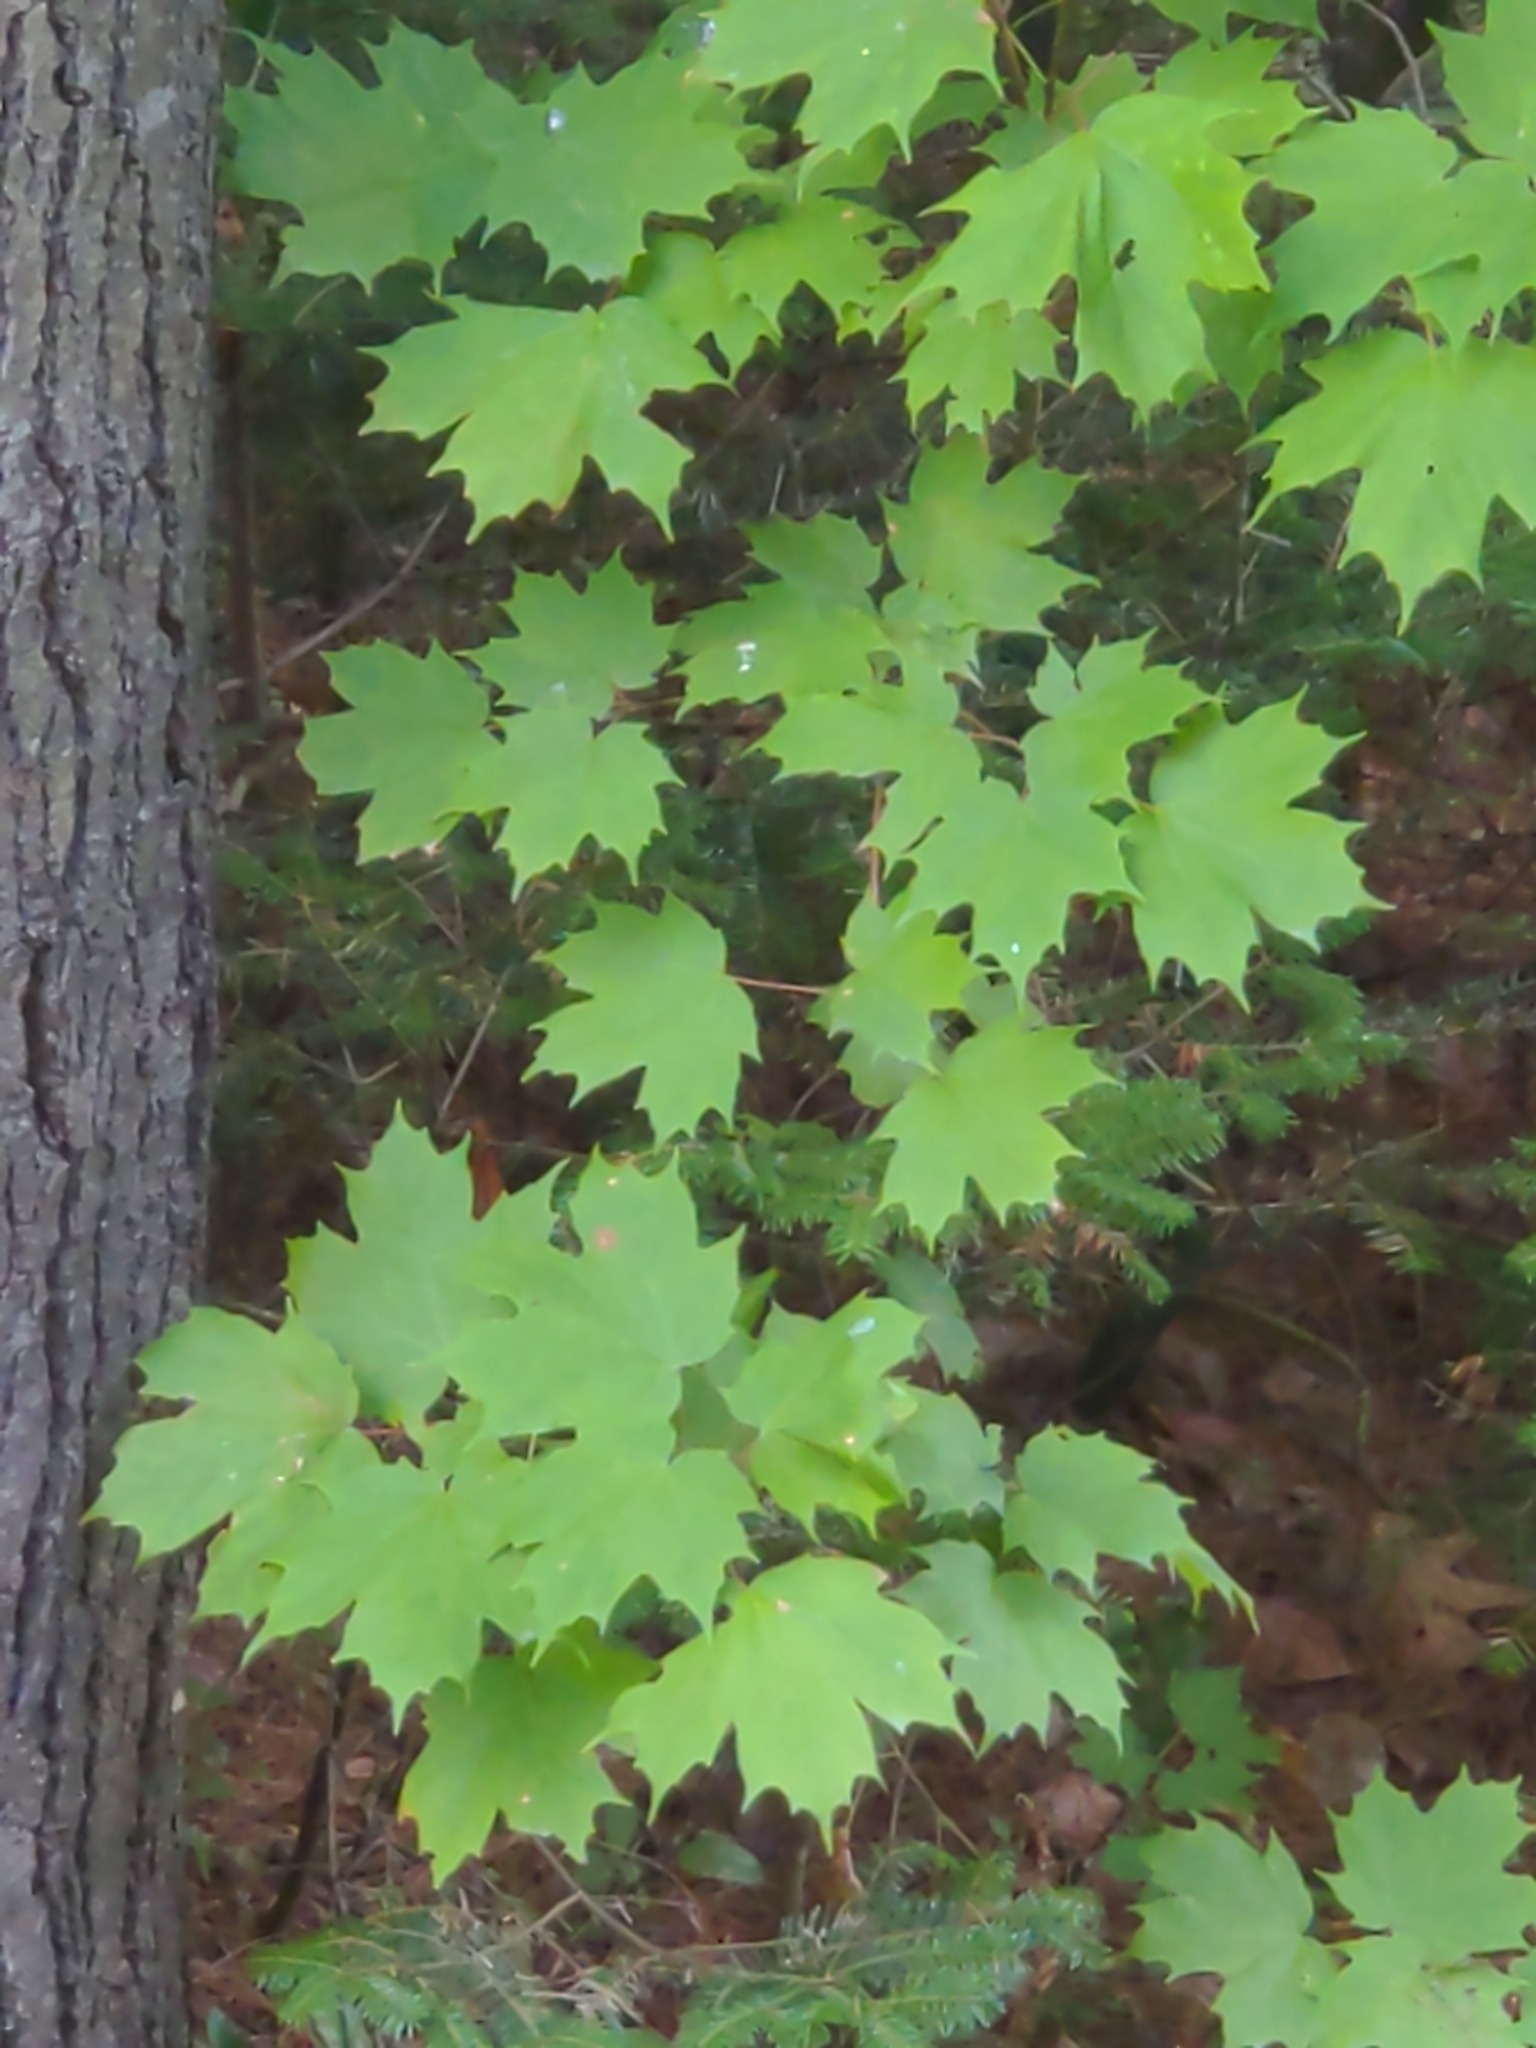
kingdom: Plantae
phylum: Tracheophyta
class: Magnoliopsida
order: Sapindales
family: Sapindaceae
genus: Acer
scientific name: Acer saccharum
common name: Sugar maple
